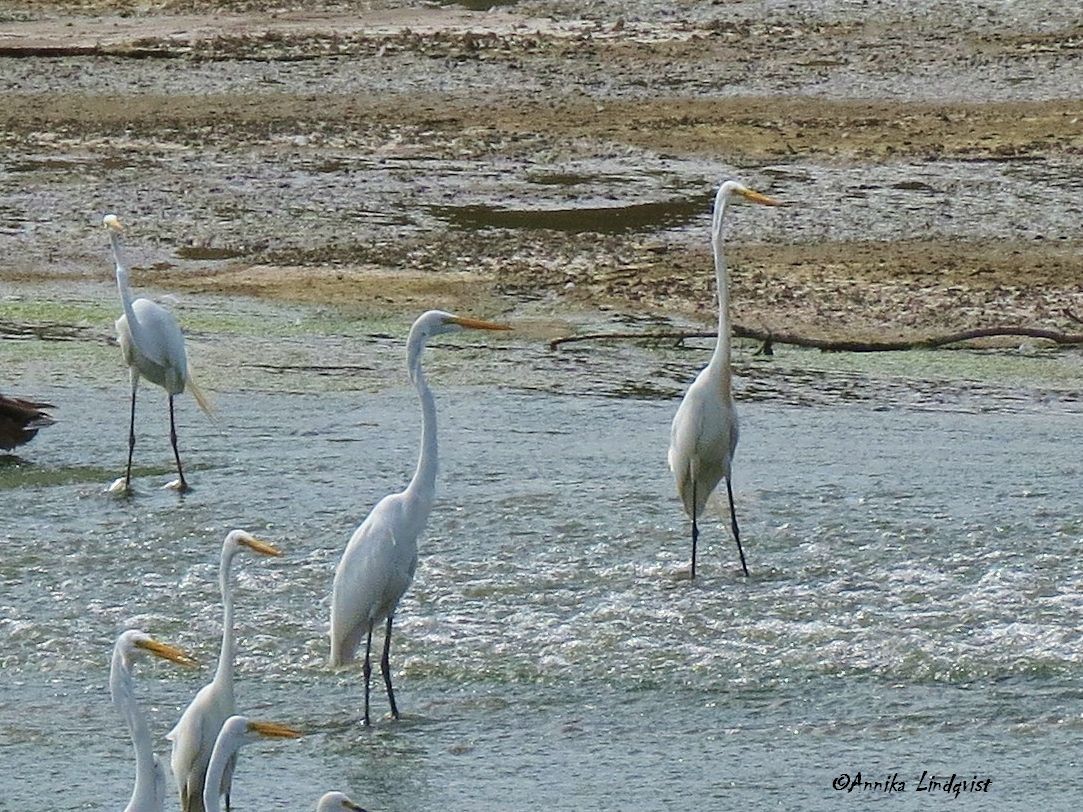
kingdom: Animalia
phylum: Chordata
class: Aves
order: Pelecaniformes
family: Ardeidae
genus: Ardea
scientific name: Ardea alba
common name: Great egret
